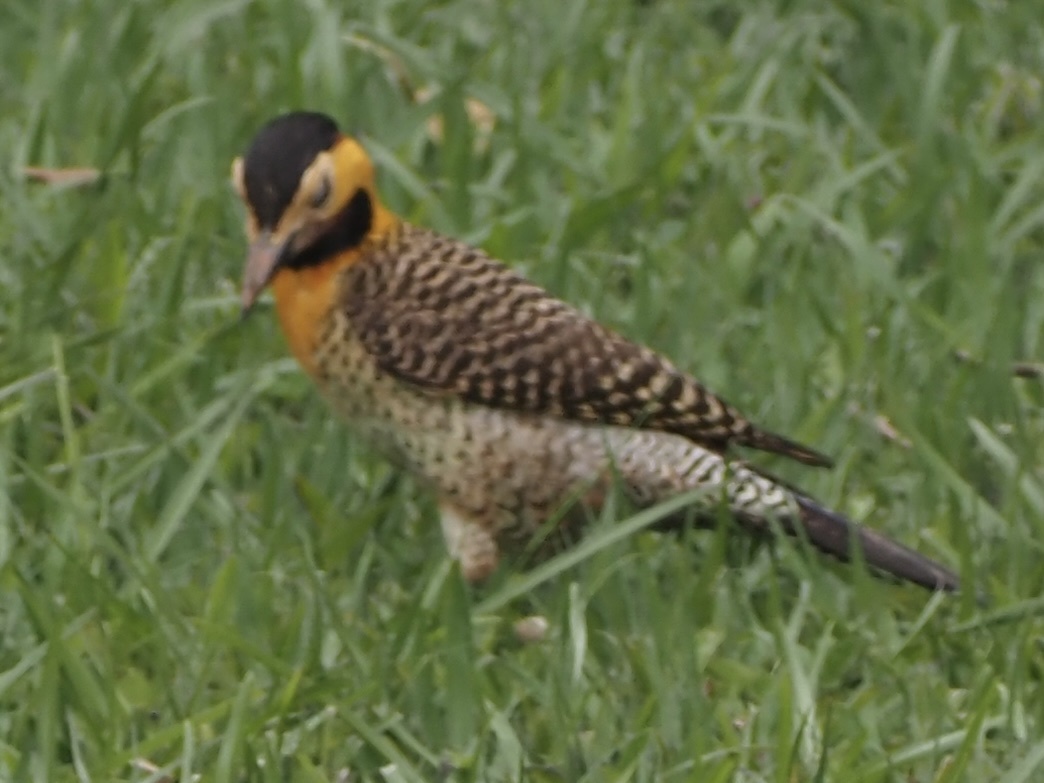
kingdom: Animalia
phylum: Chordata
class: Aves
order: Piciformes
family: Picidae
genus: Colaptes
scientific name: Colaptes campestris
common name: Campo flicker
